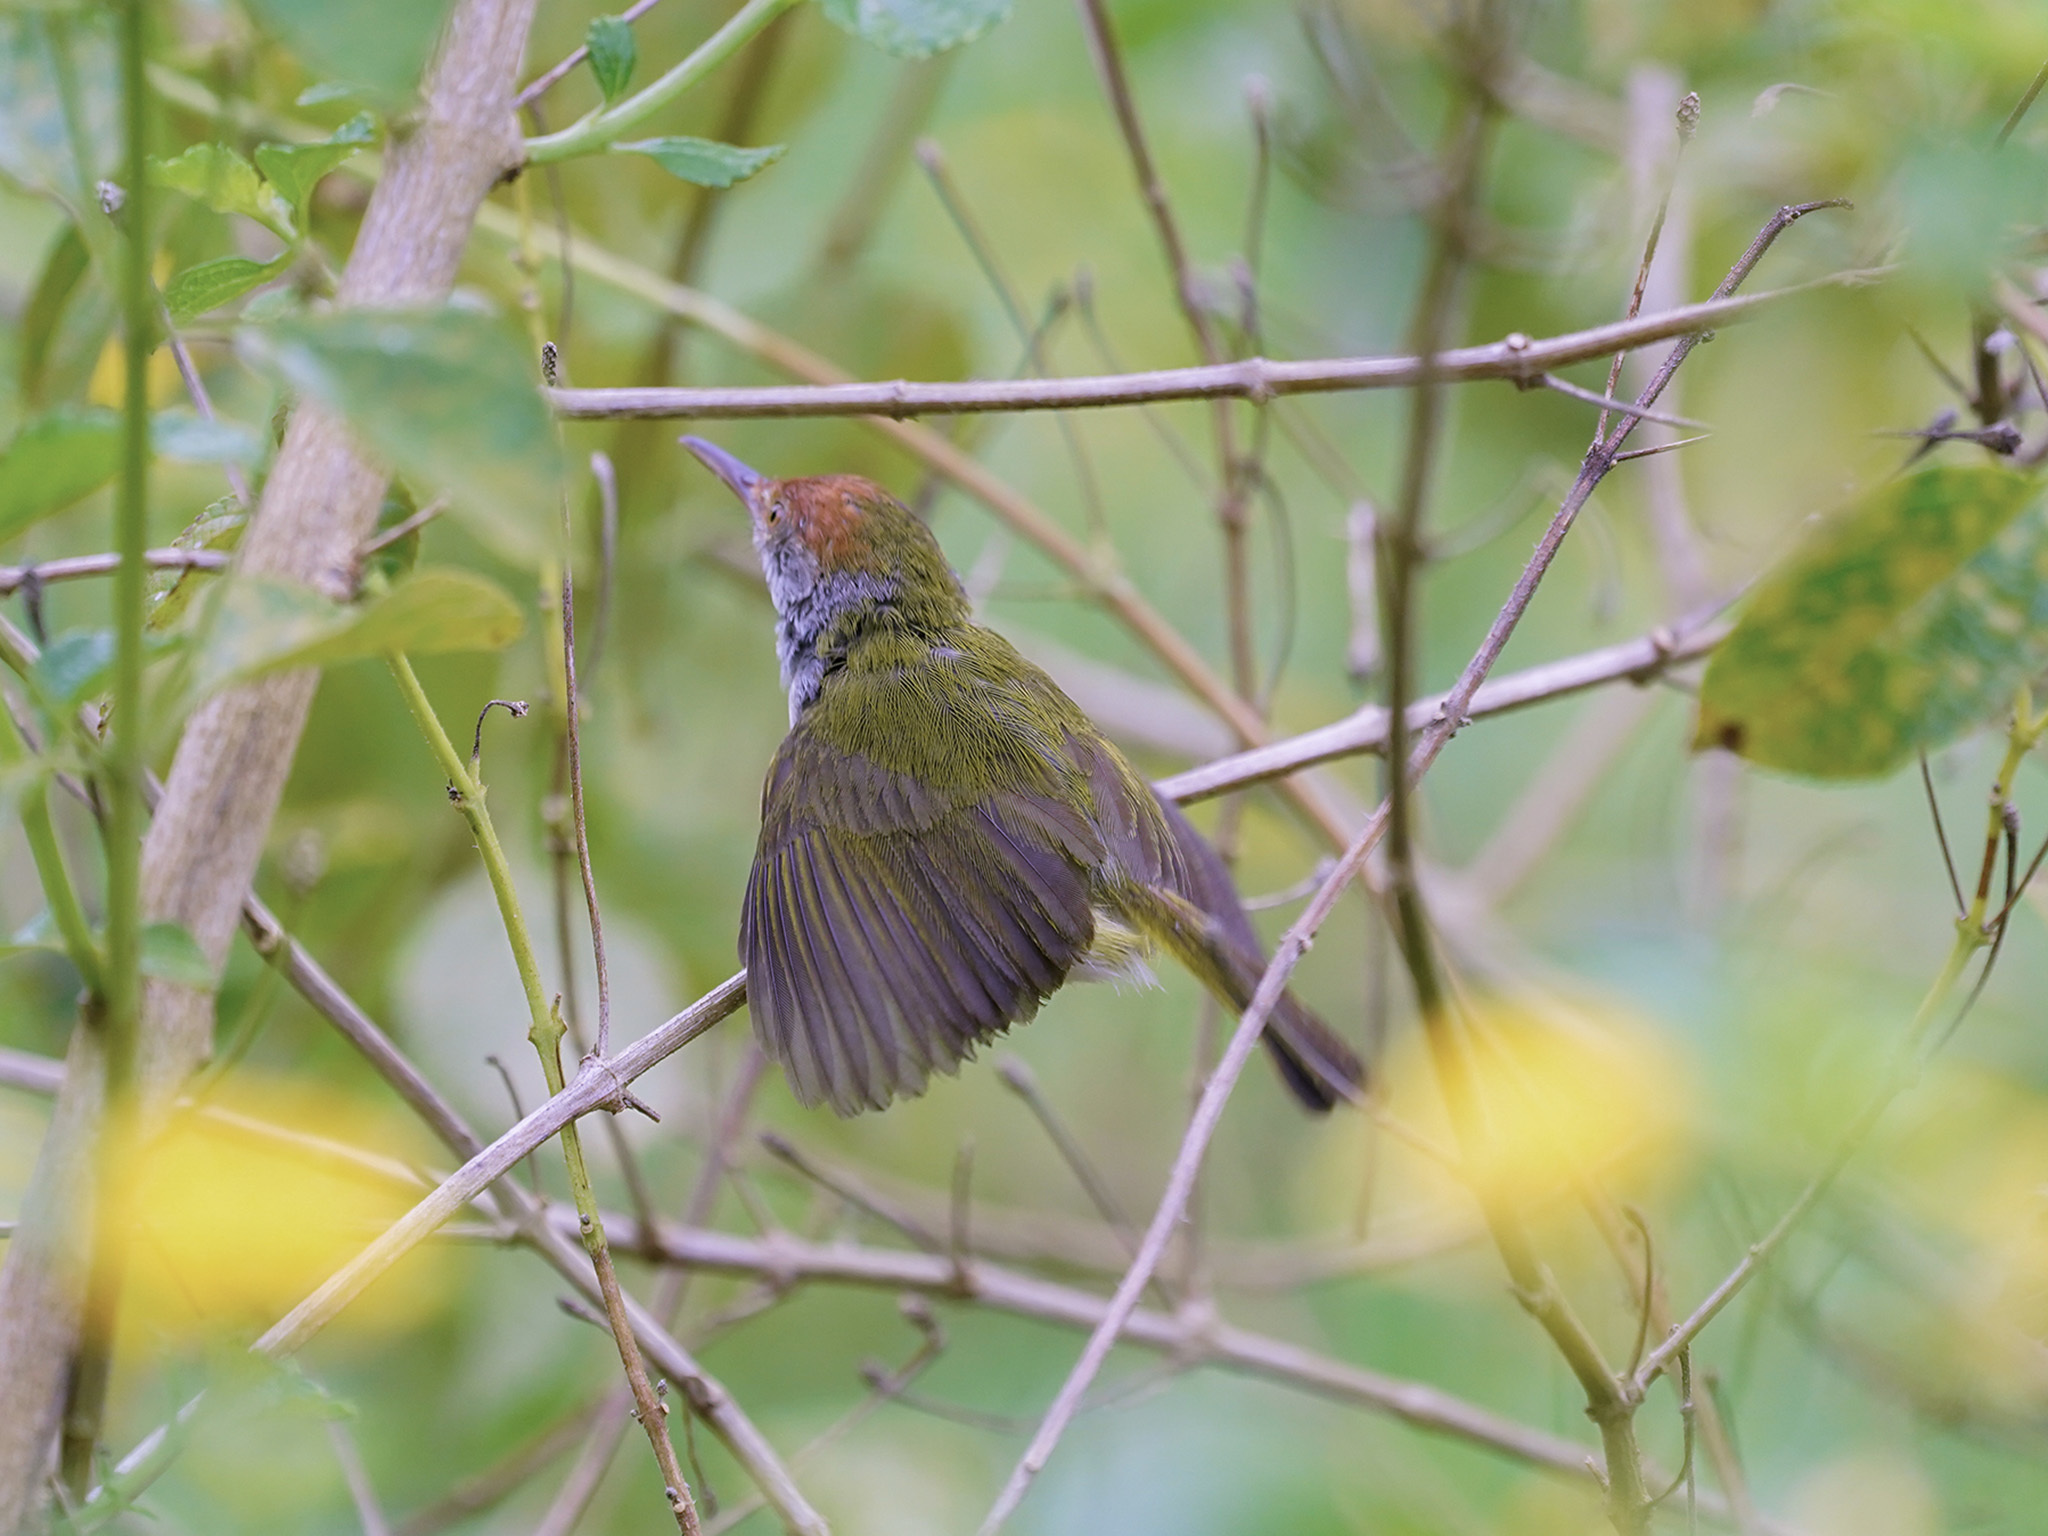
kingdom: Animalia
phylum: Chordata
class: Aves
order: Passeriformes
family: Cisticolidae
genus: Orthotomus
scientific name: Orthotomus atrogularis
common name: Dark-necked tailorbird
